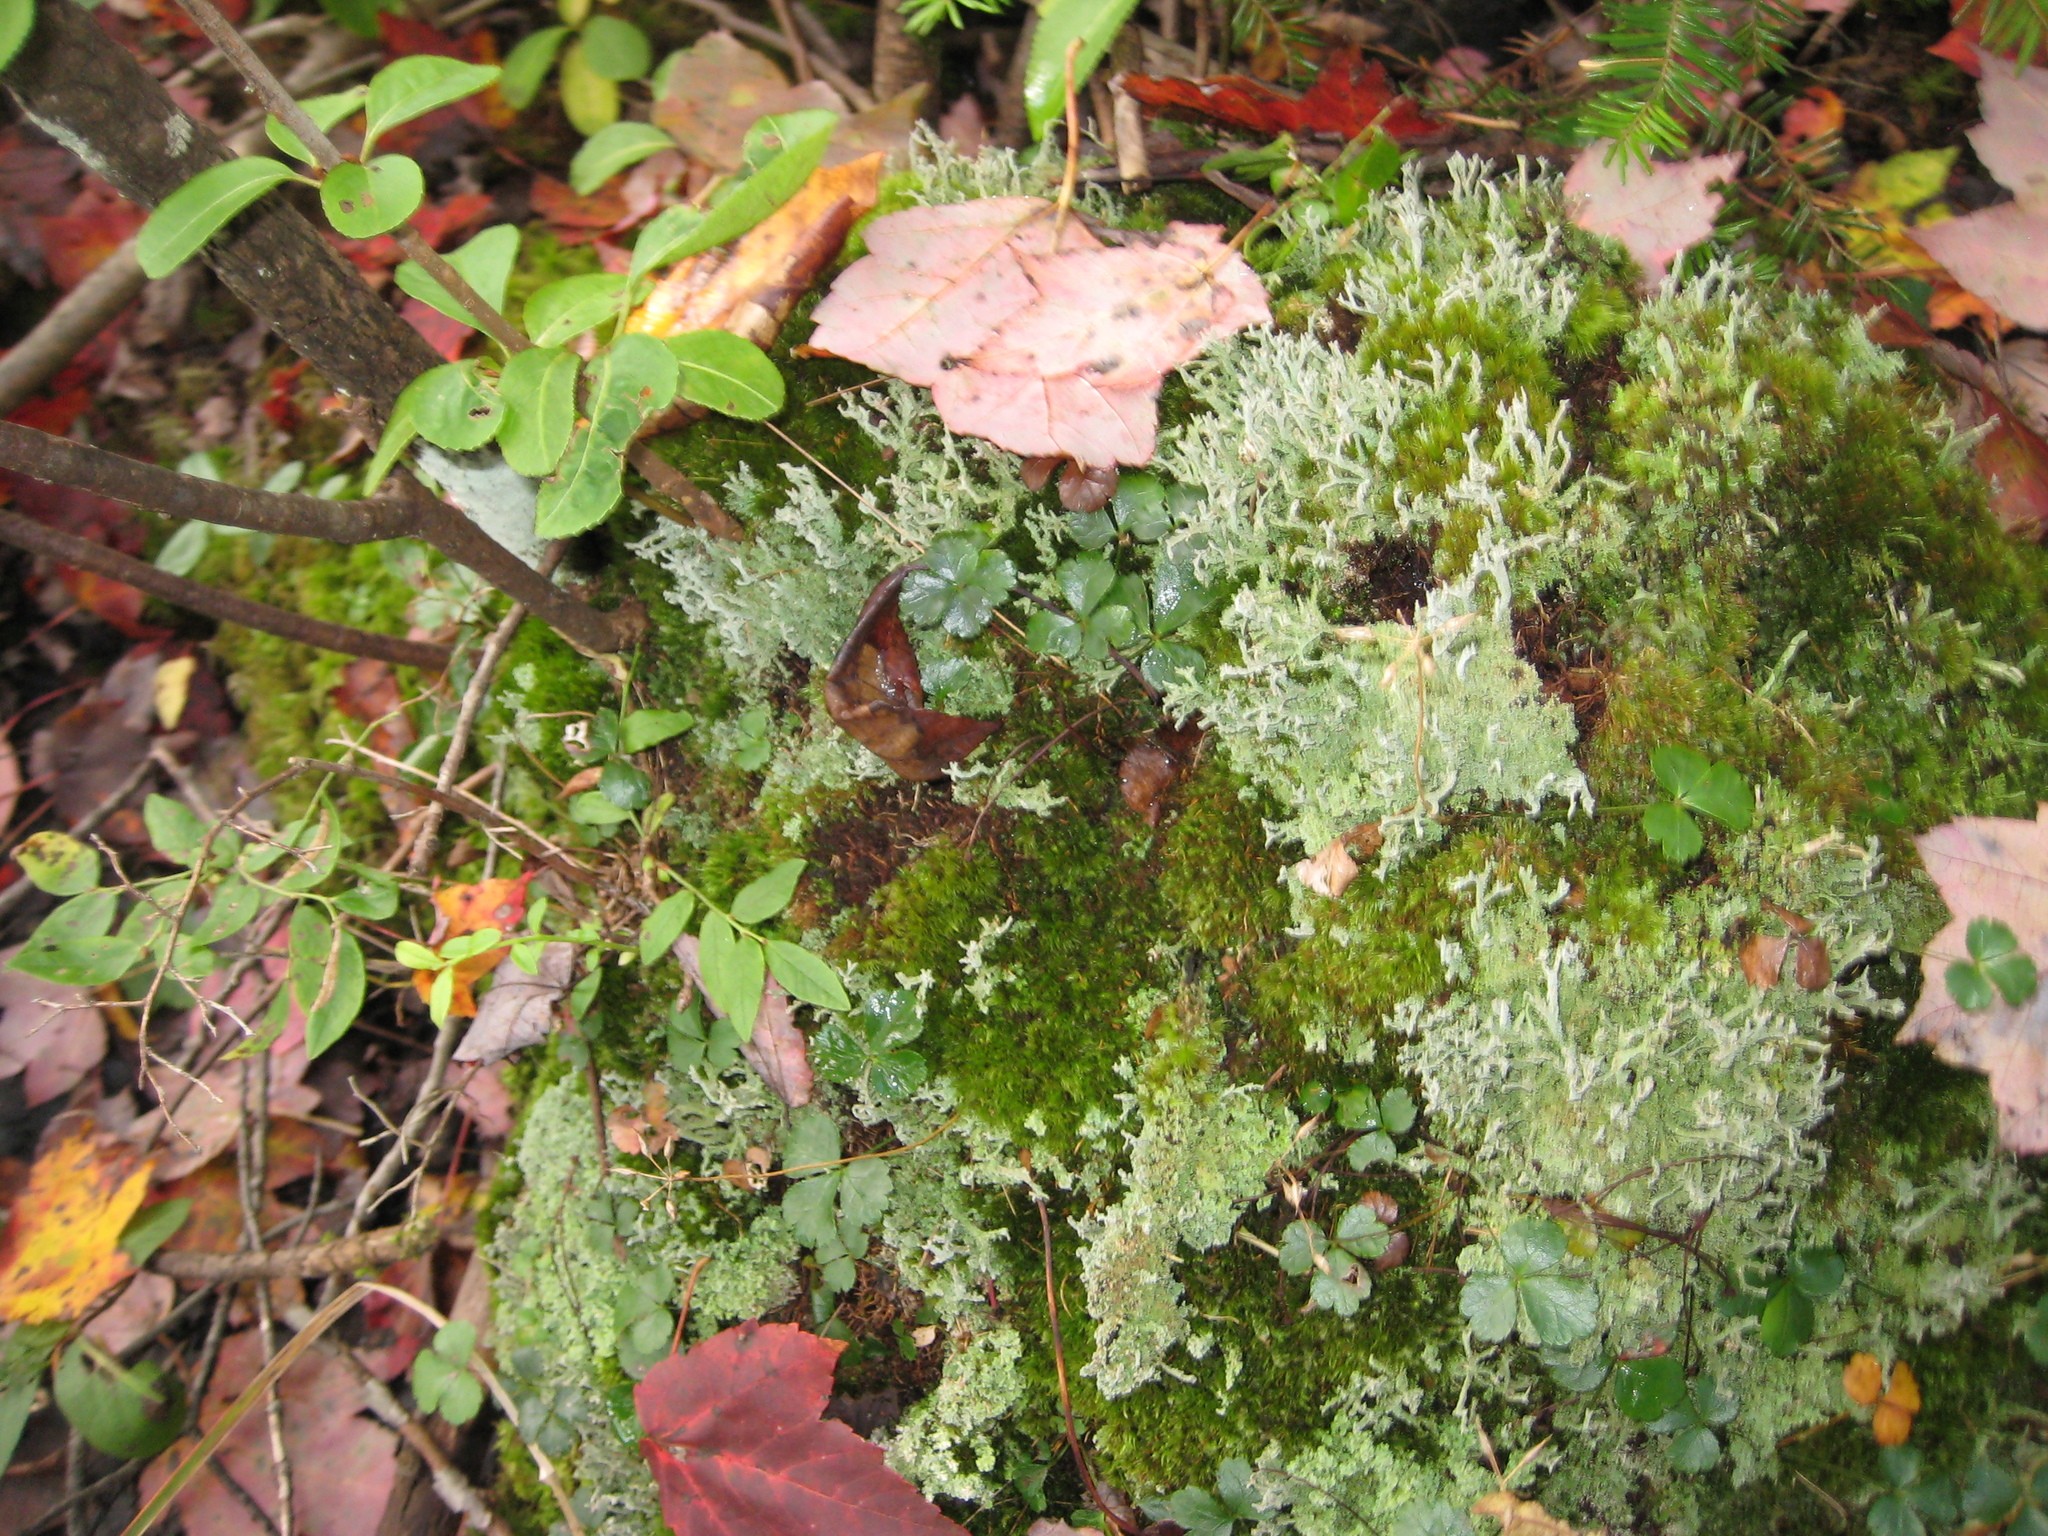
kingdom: Plantae
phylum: Tracheophyta
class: Magnoliopsida
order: Ranunculales
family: Ranunculaceae
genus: Coptis
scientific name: Coptis trifolia
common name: Canker-root
